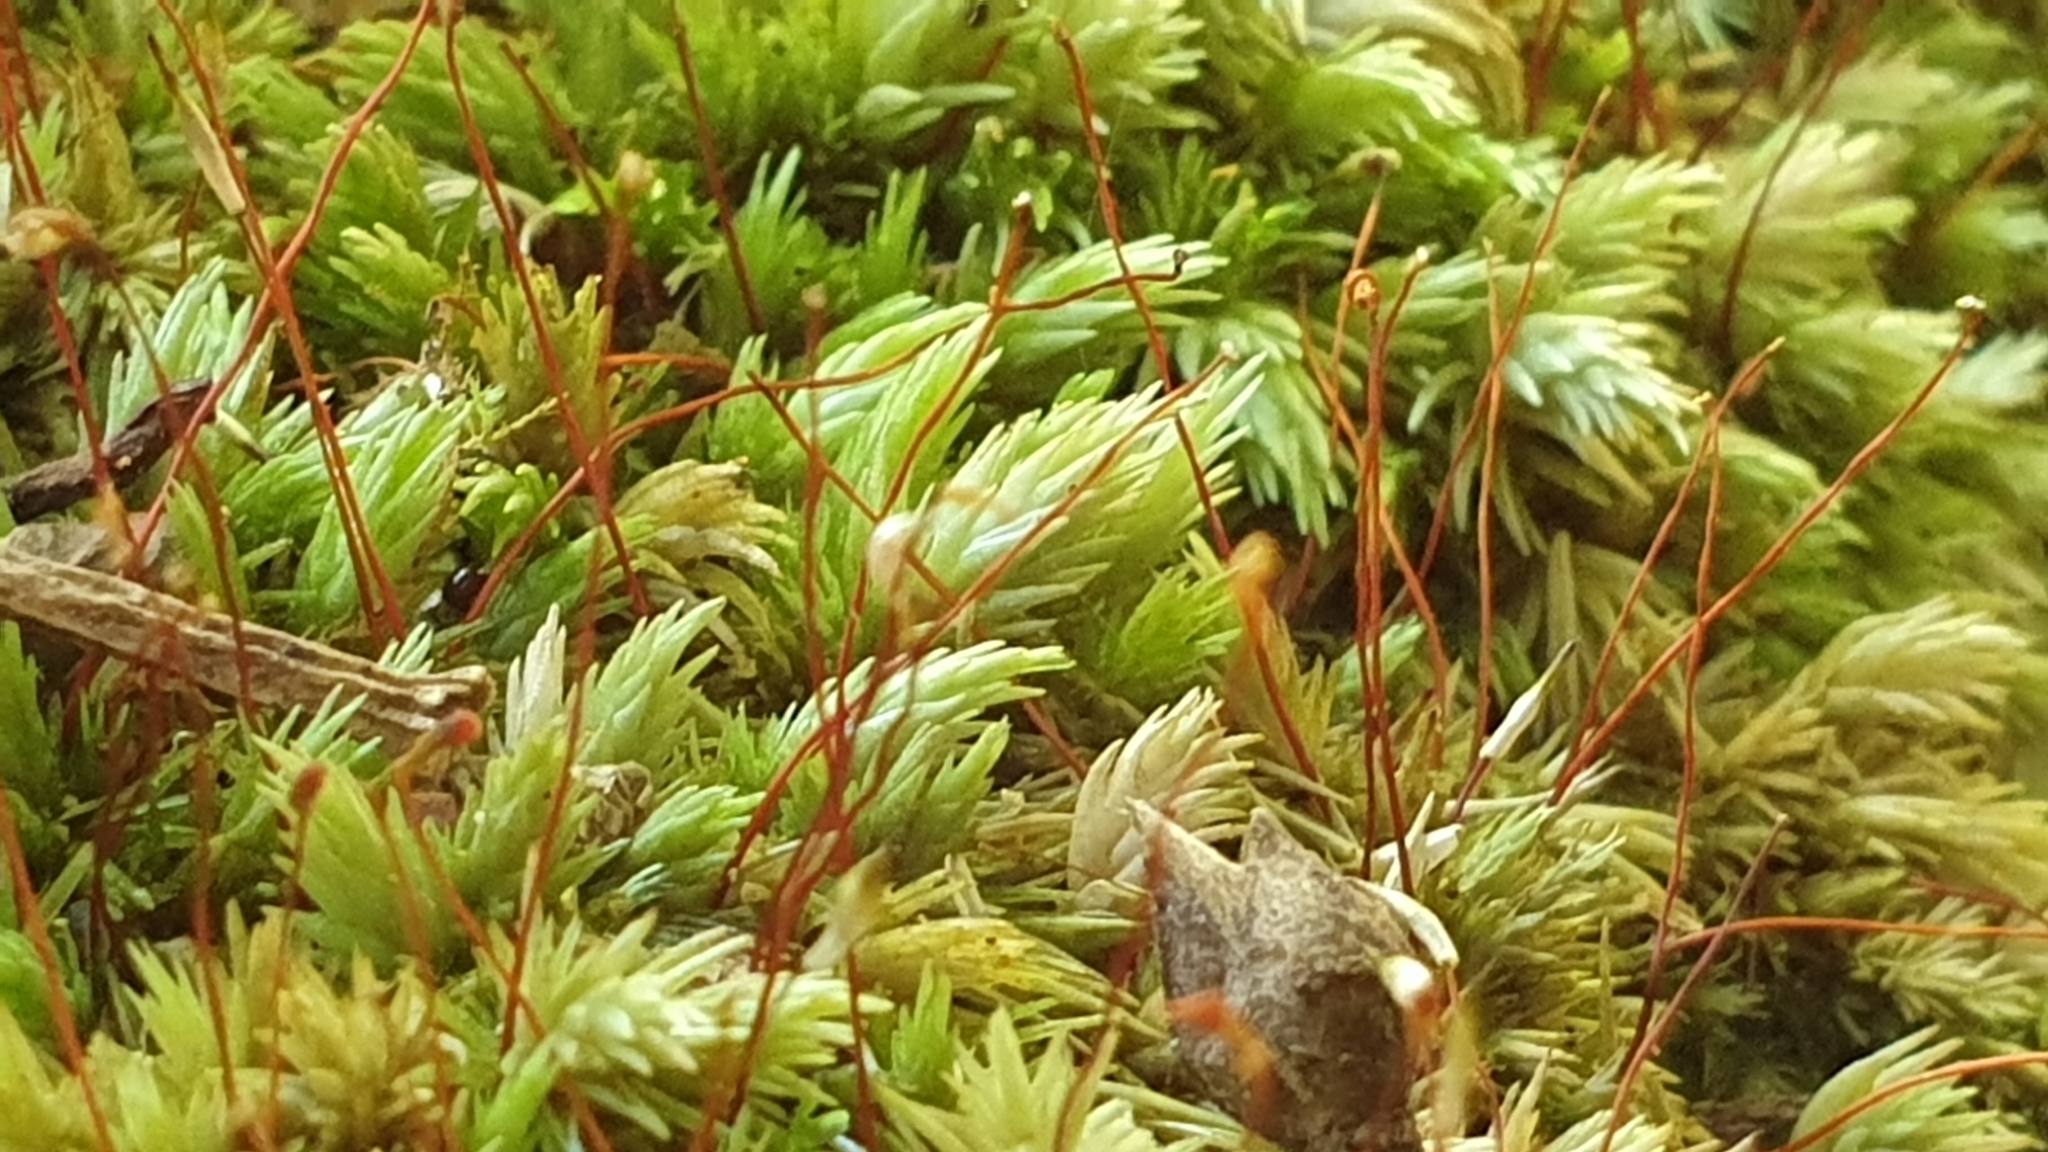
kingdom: Plantae
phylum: Bryophyta
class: Bryopsida
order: Dicranales
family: Leucobryaceae
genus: Leucobryum
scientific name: Leucobryum javense
